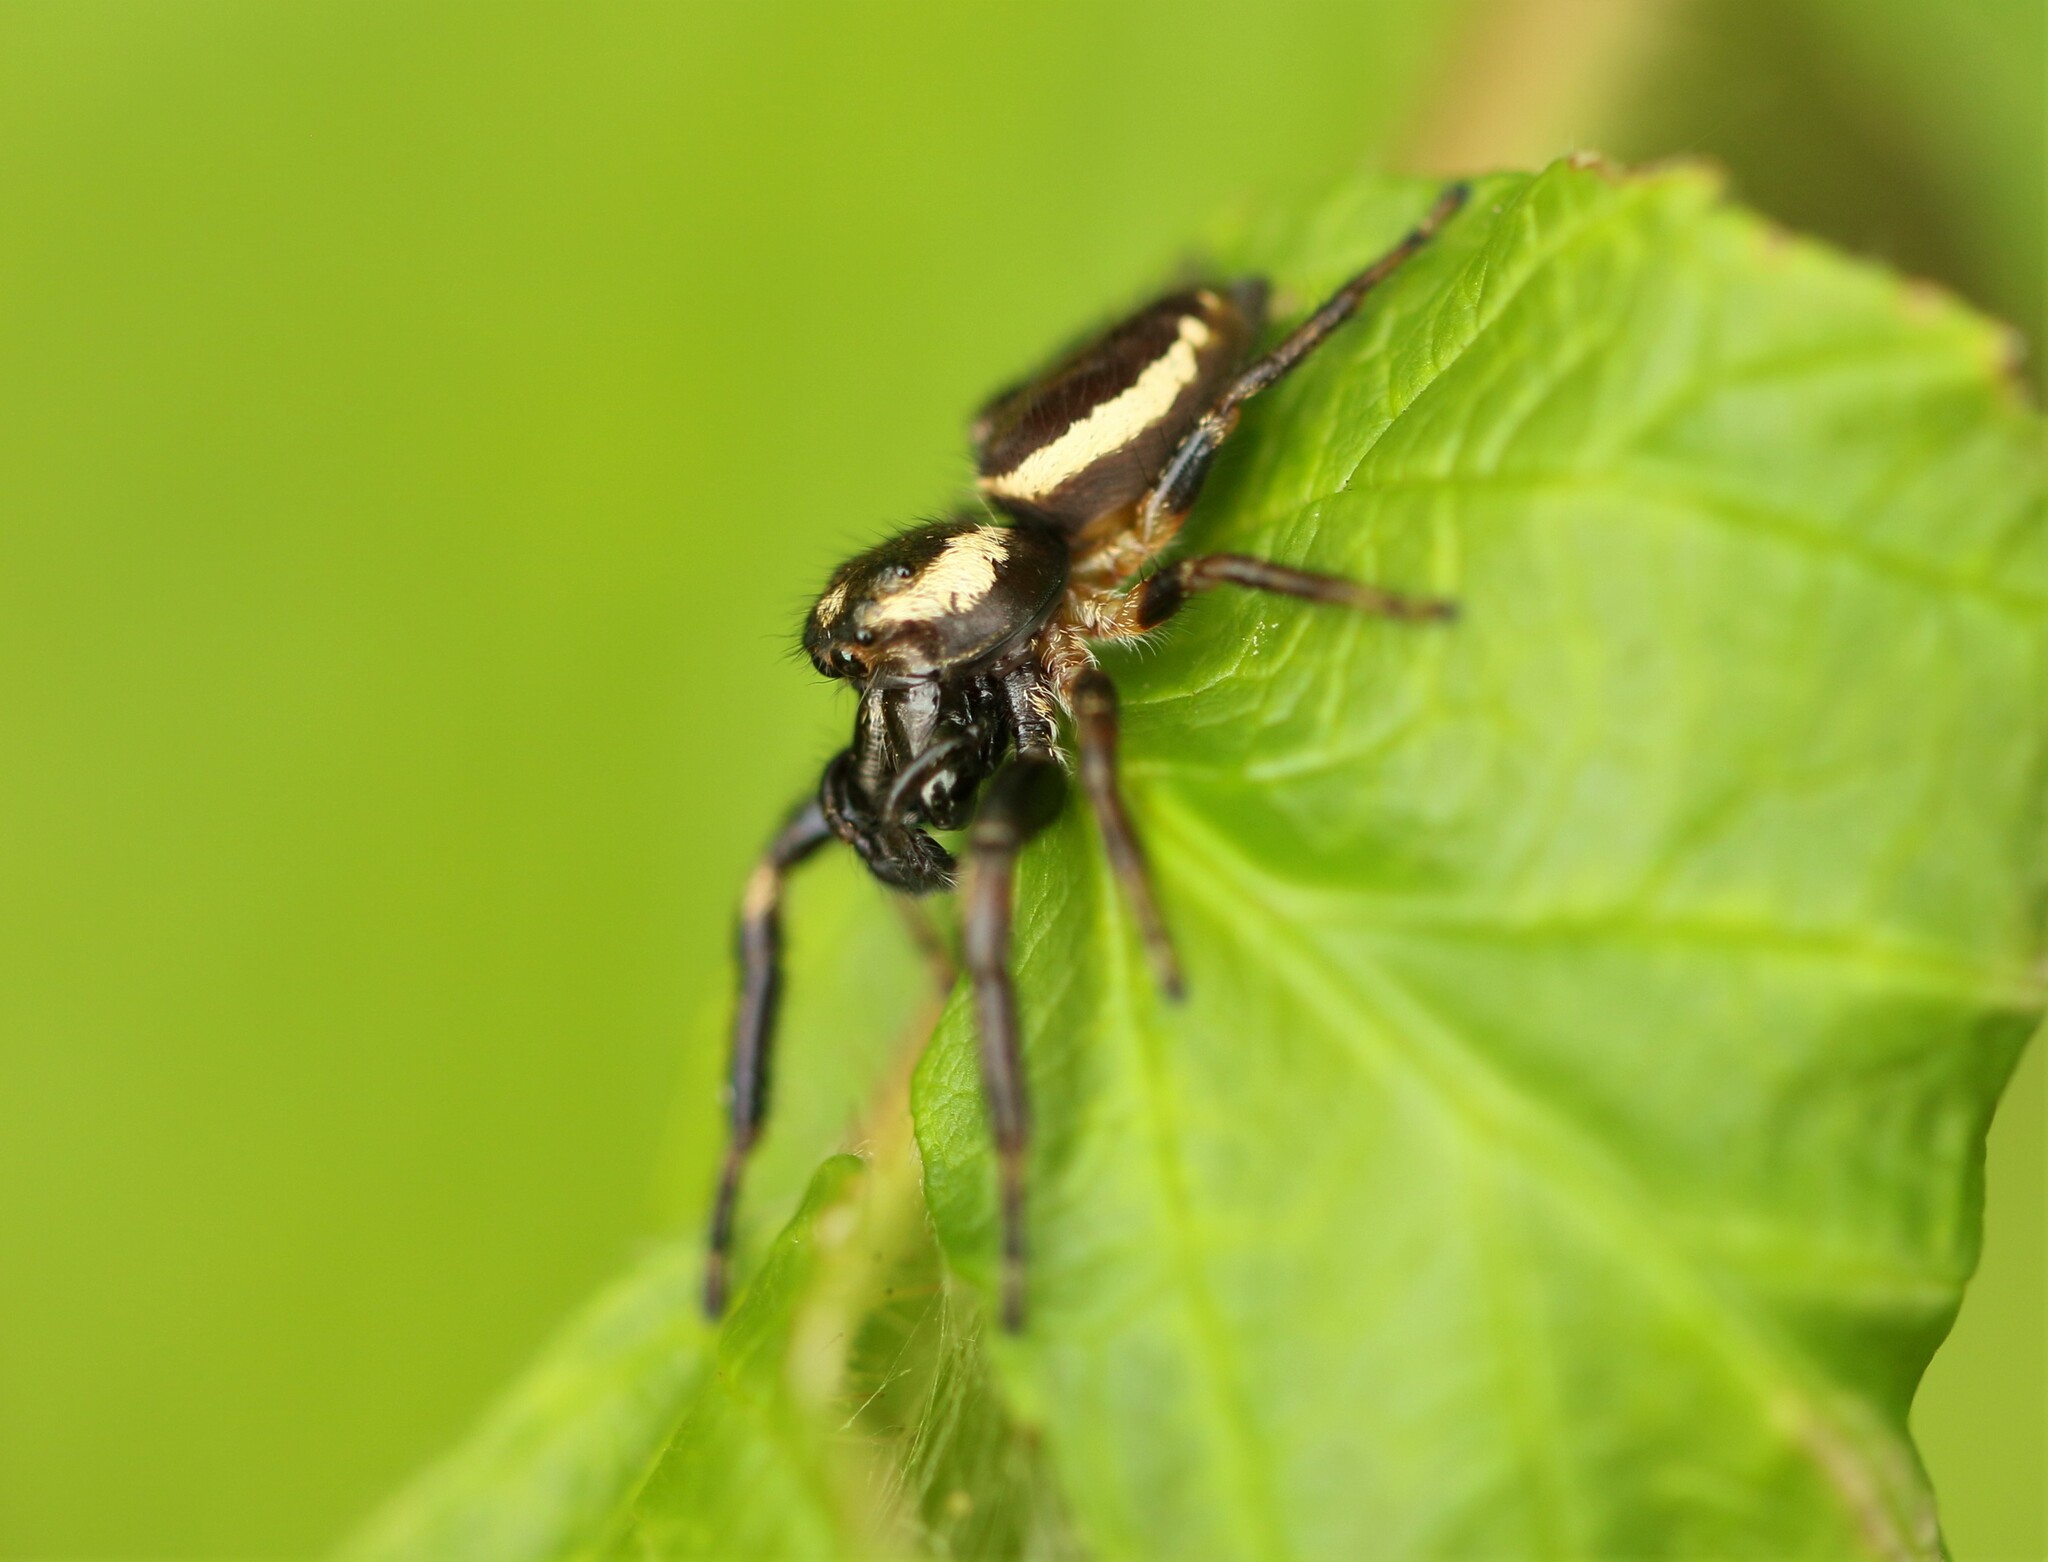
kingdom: Animalia
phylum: Arthropoda
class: Arachnida
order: Araneae
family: Salticidae
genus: Eris
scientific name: Eris militaris
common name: Bronze jumper
